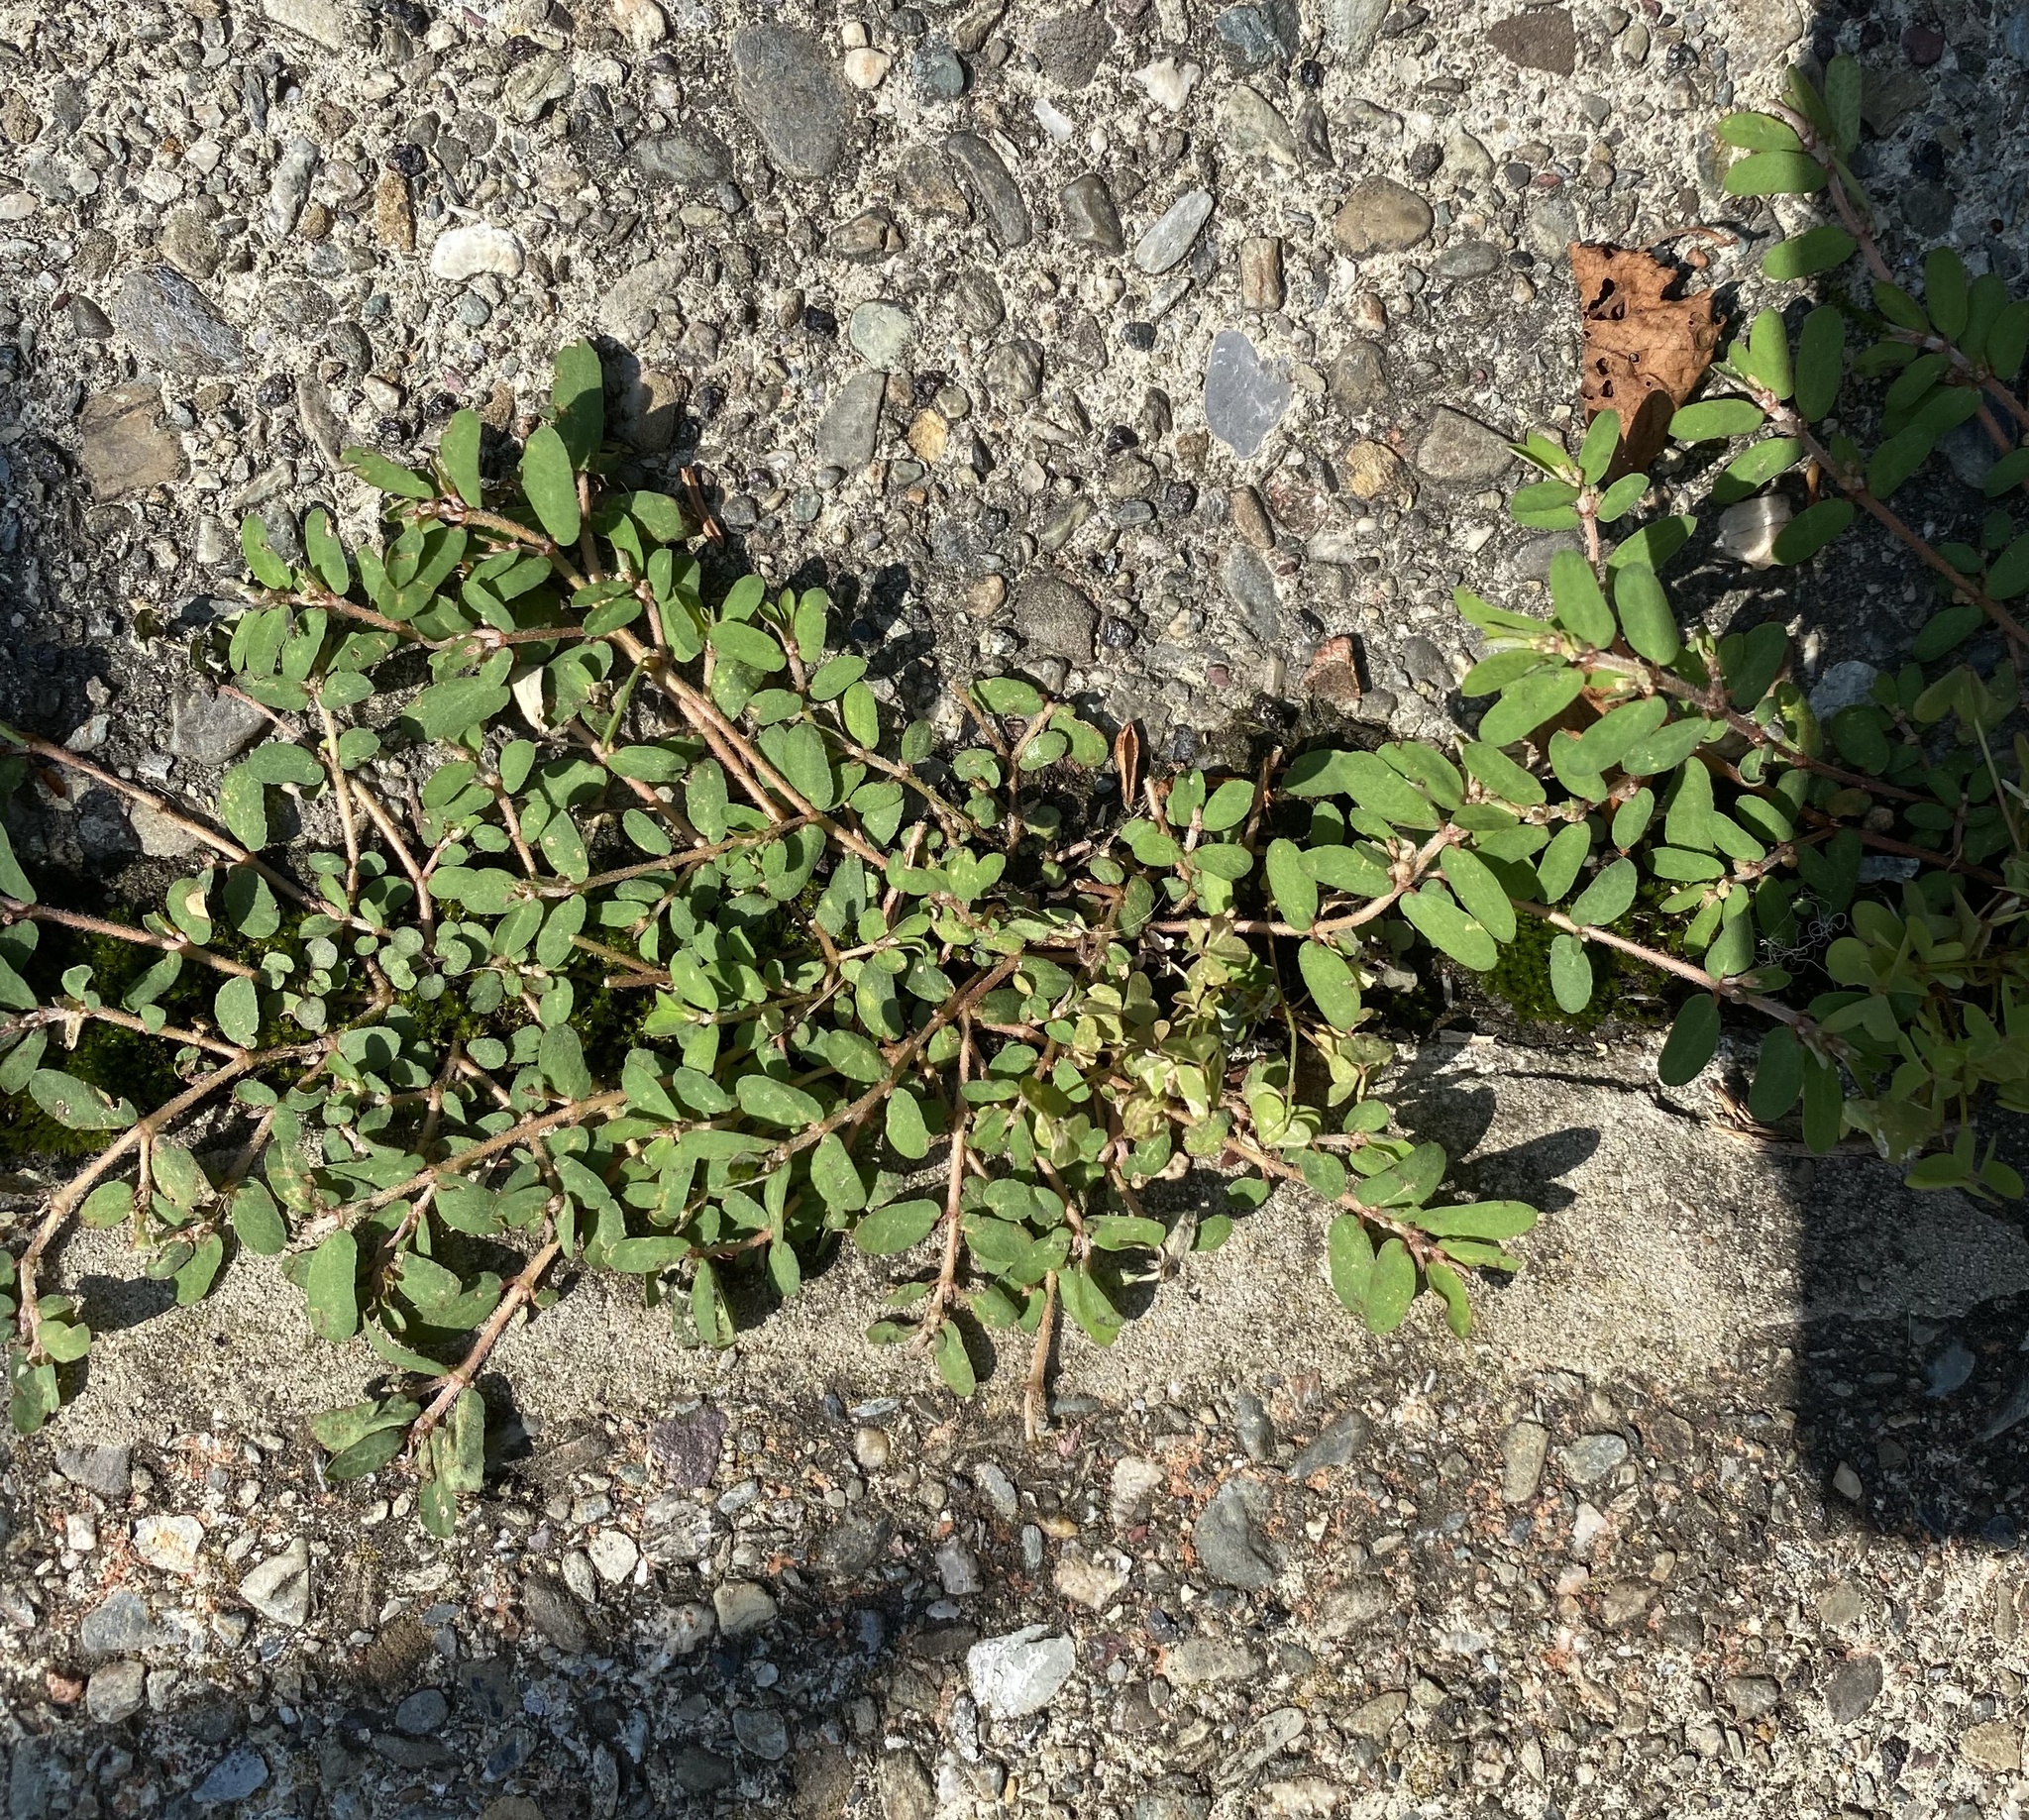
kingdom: Plantae
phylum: Tracheophyta
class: Magnoliopsida
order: Malpighiales
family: Euphorbiaceae
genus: Euphorbia
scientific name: Euphorbia maculata
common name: Spotted spurge
